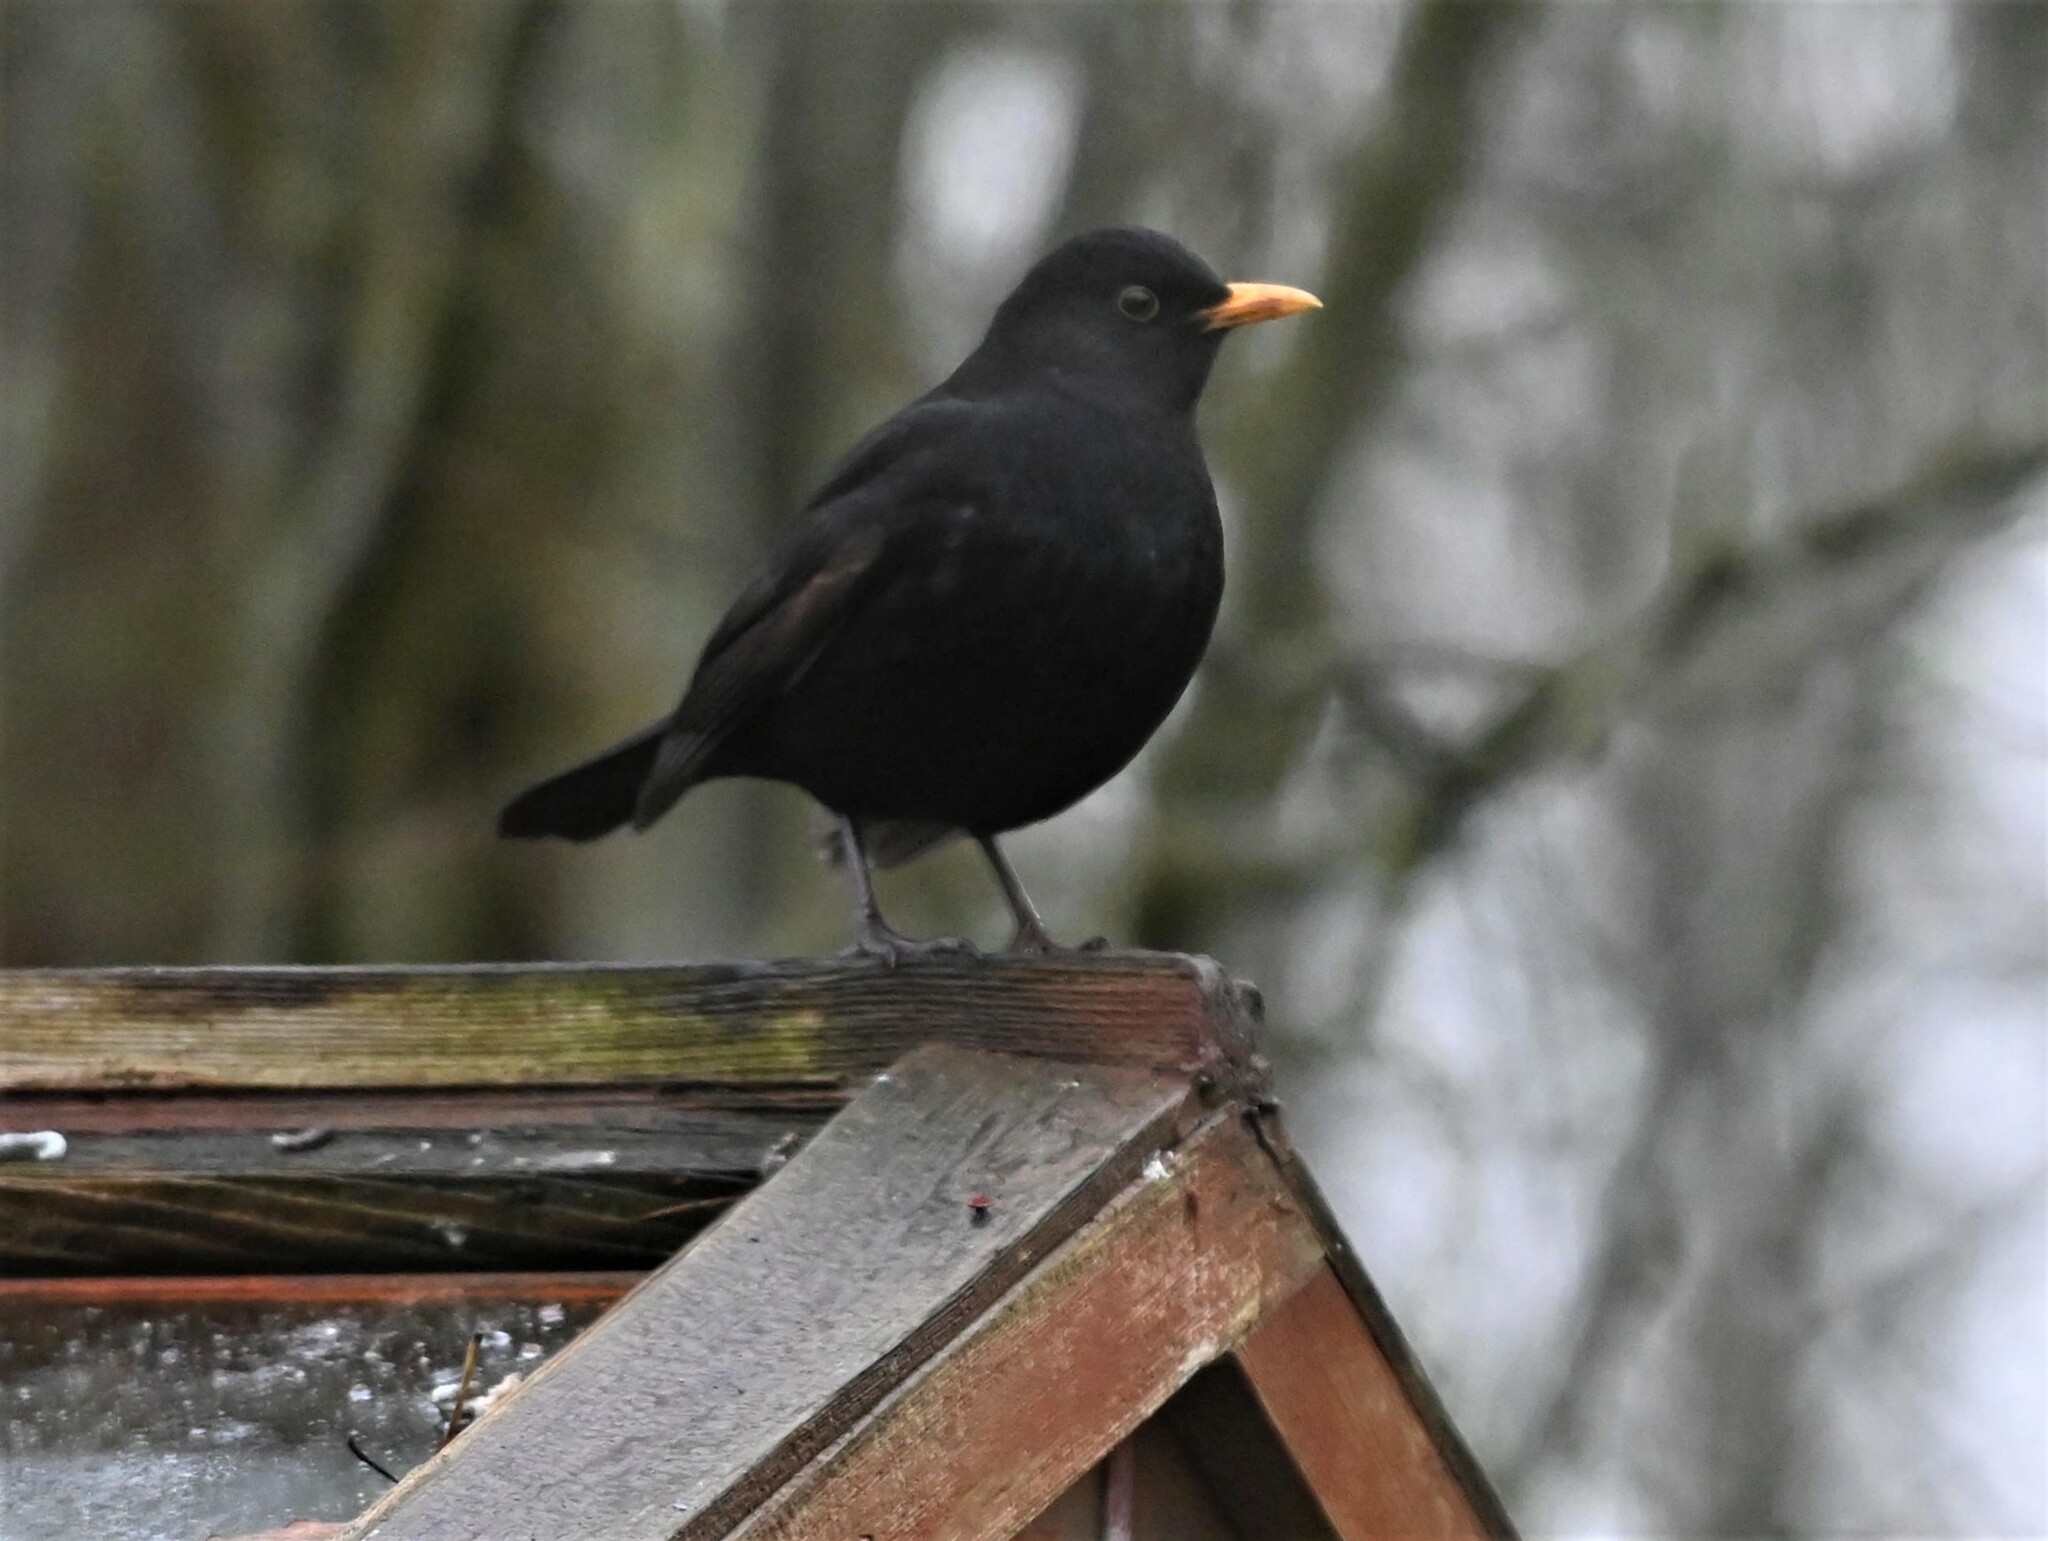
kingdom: Animalia
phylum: Chordata
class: Aves
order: Passeriformes
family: Turdidae
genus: Turdus
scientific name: Turdus merula
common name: Common blackbird
